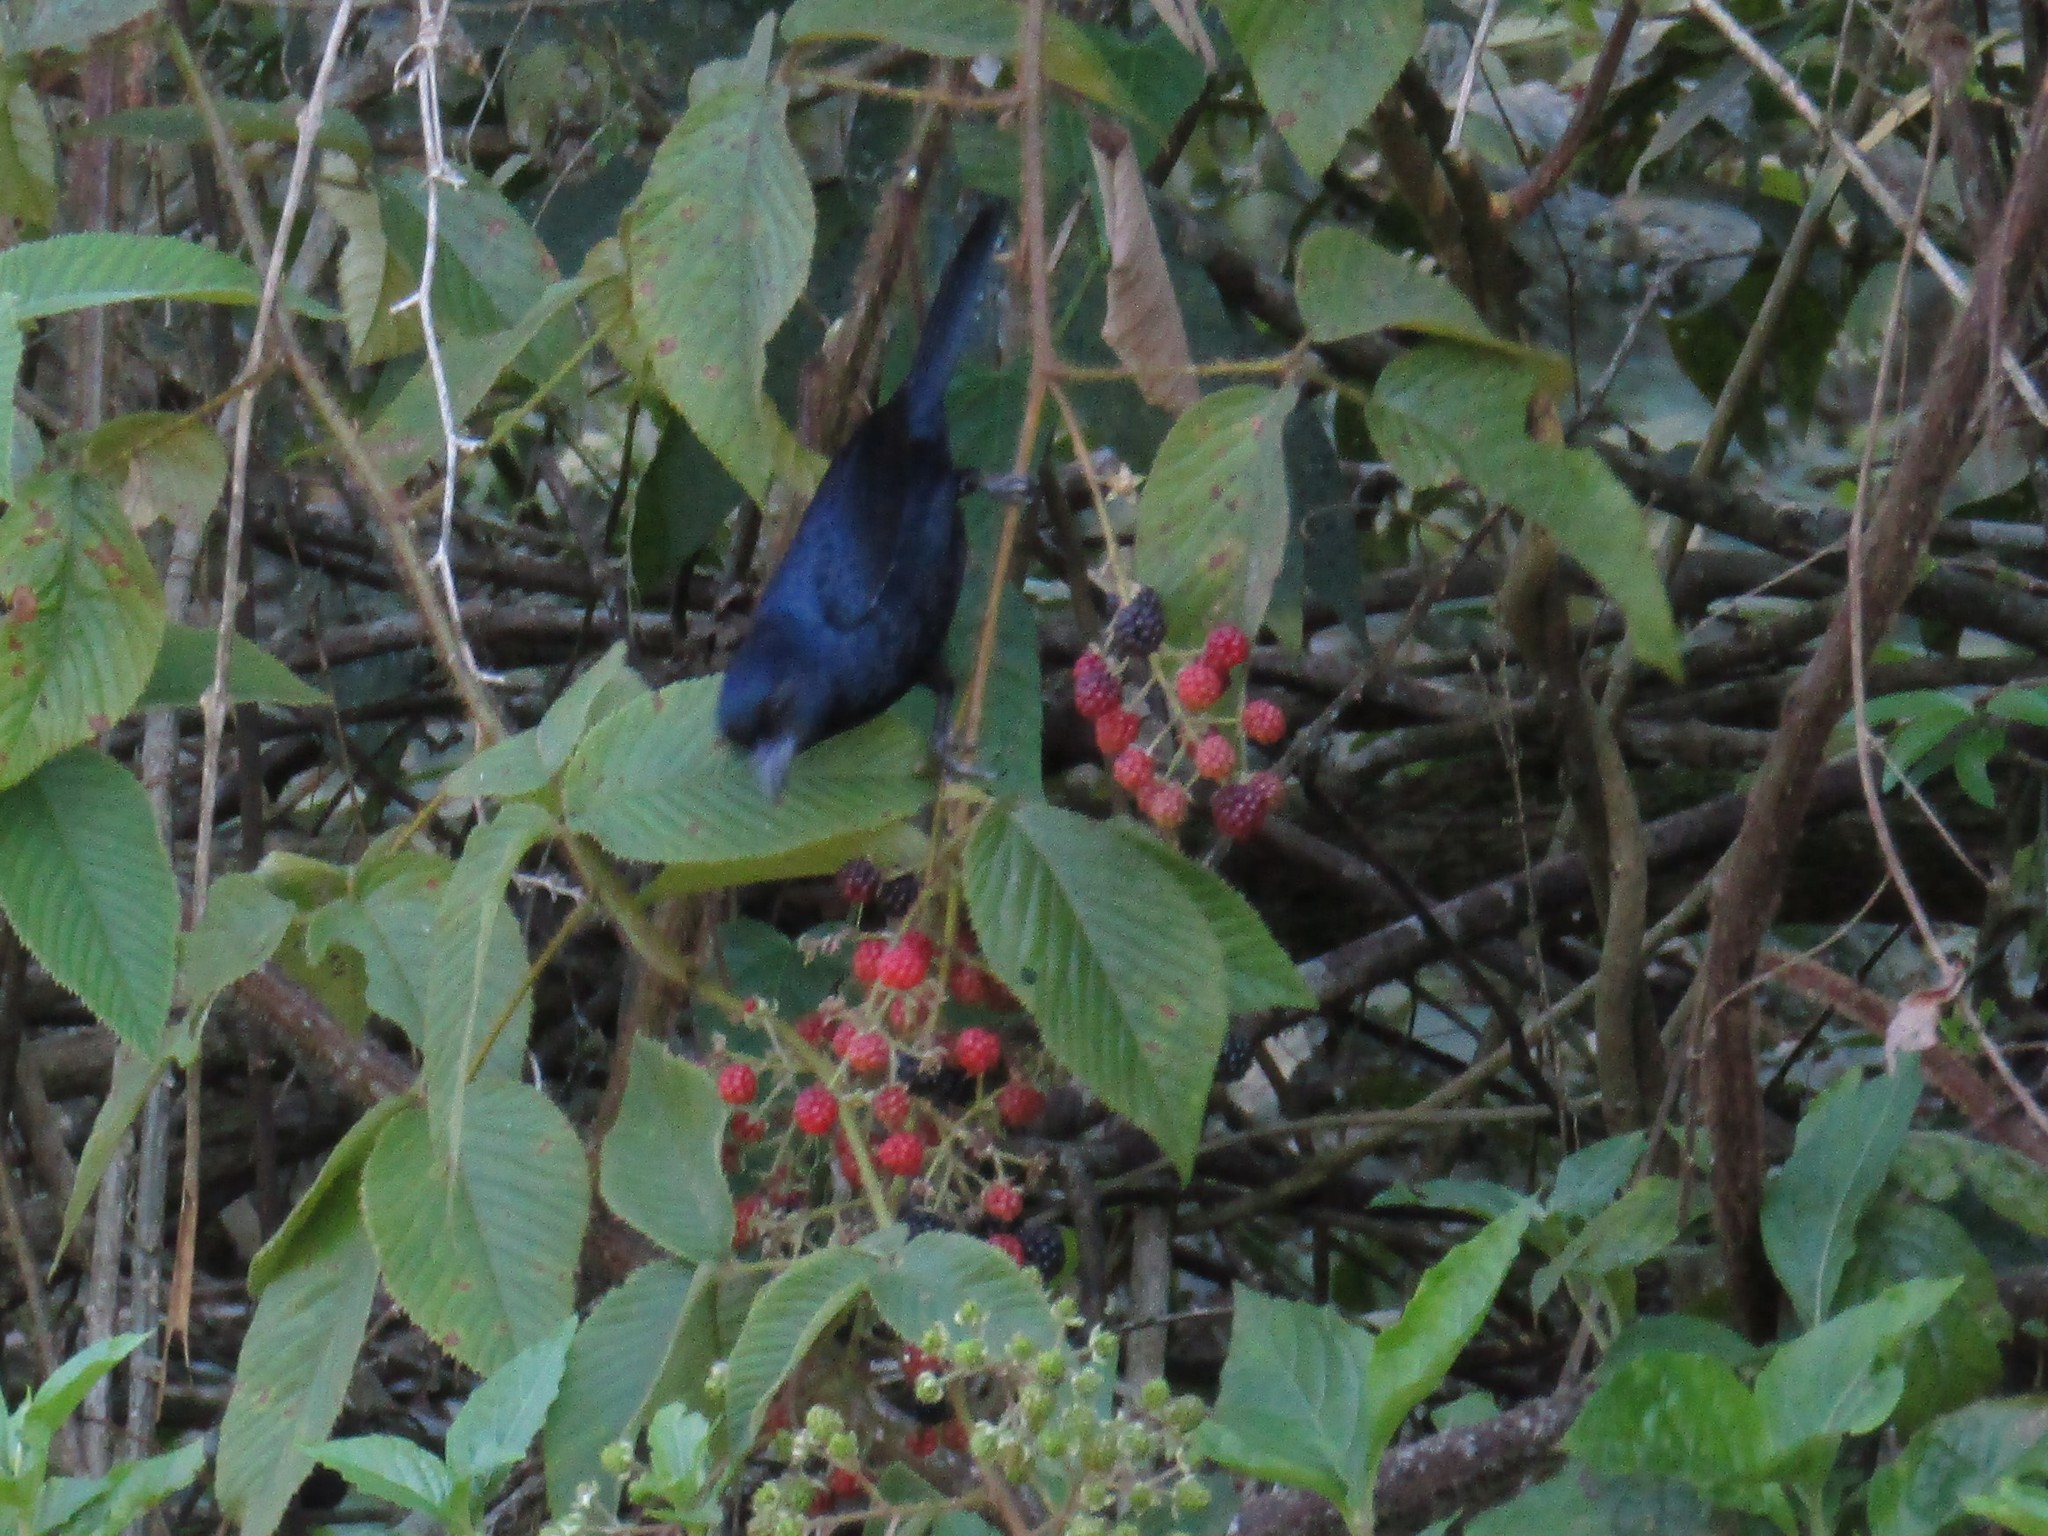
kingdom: Animalia
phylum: Chordata
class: Aves
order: Passeriformes
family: Thraupidae
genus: Tachyphonus
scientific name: Tachyphonus coronatus
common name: Ruby-crowned tanager
